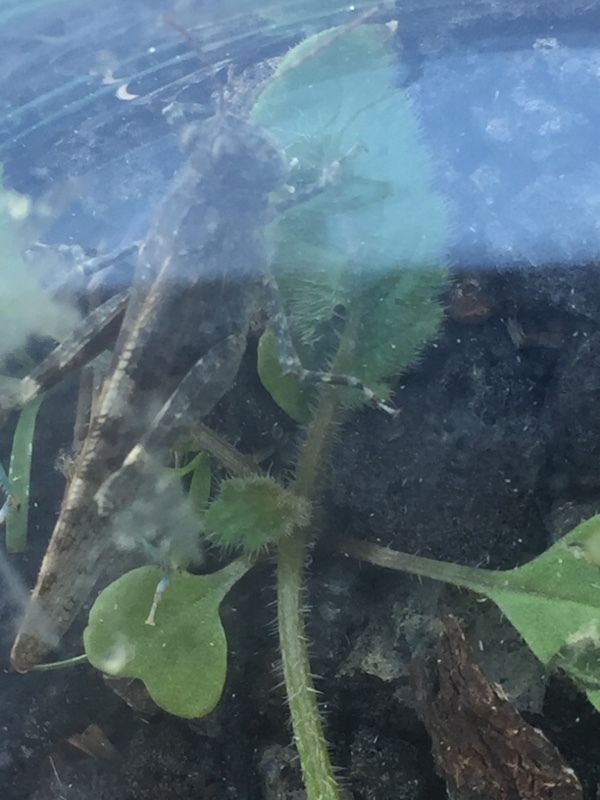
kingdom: Animalia
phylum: Arthropoda
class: Insecta
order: Orthoptera
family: Acrididae
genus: Sphingonotus
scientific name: Sphingonotus rubescens
